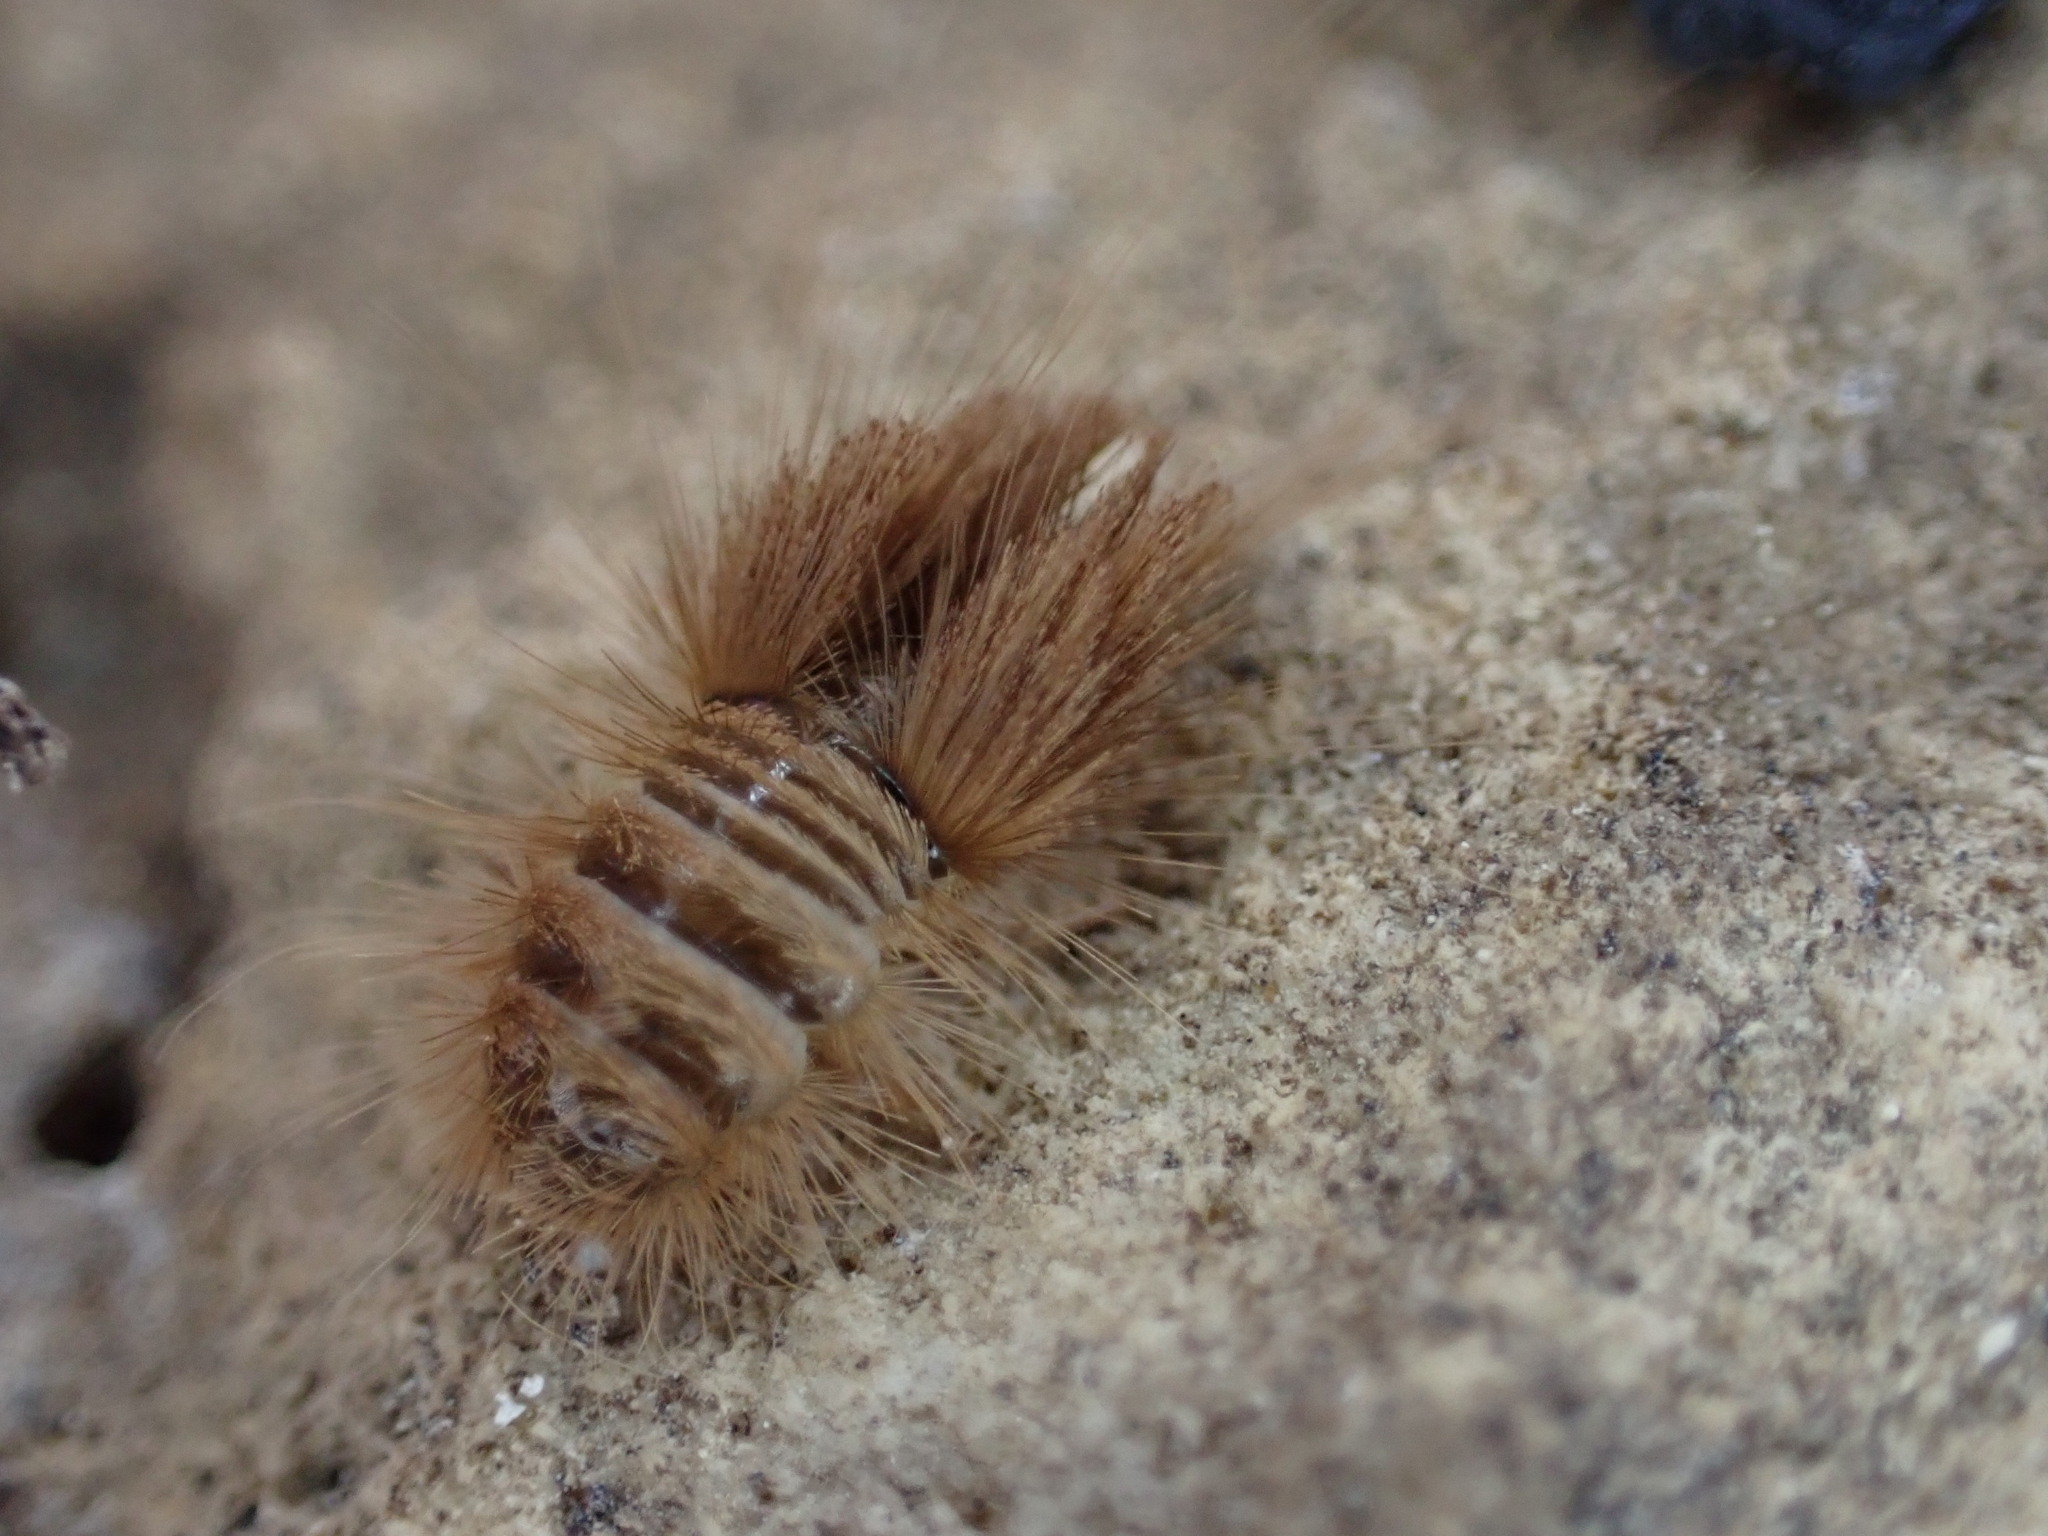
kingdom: Animalia
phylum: Arthropoda
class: Insecta
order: Coleoptera
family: Dermestidae
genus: Anthrenus
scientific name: Anthrenus verbasci
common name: Varied carpet beetle
